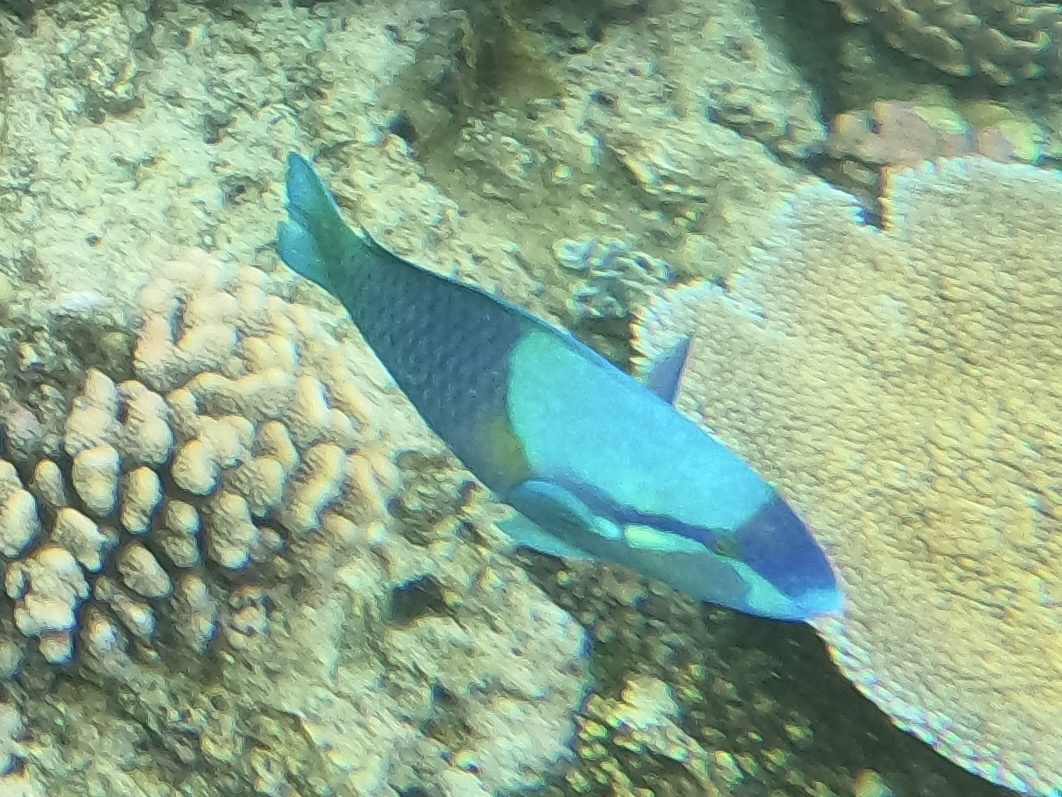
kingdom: Animalia
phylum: Chordata
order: Perciformes
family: Scaridae
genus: Scarus
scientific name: Scarus dimidiatus
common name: Yellowbarred parrotfish
